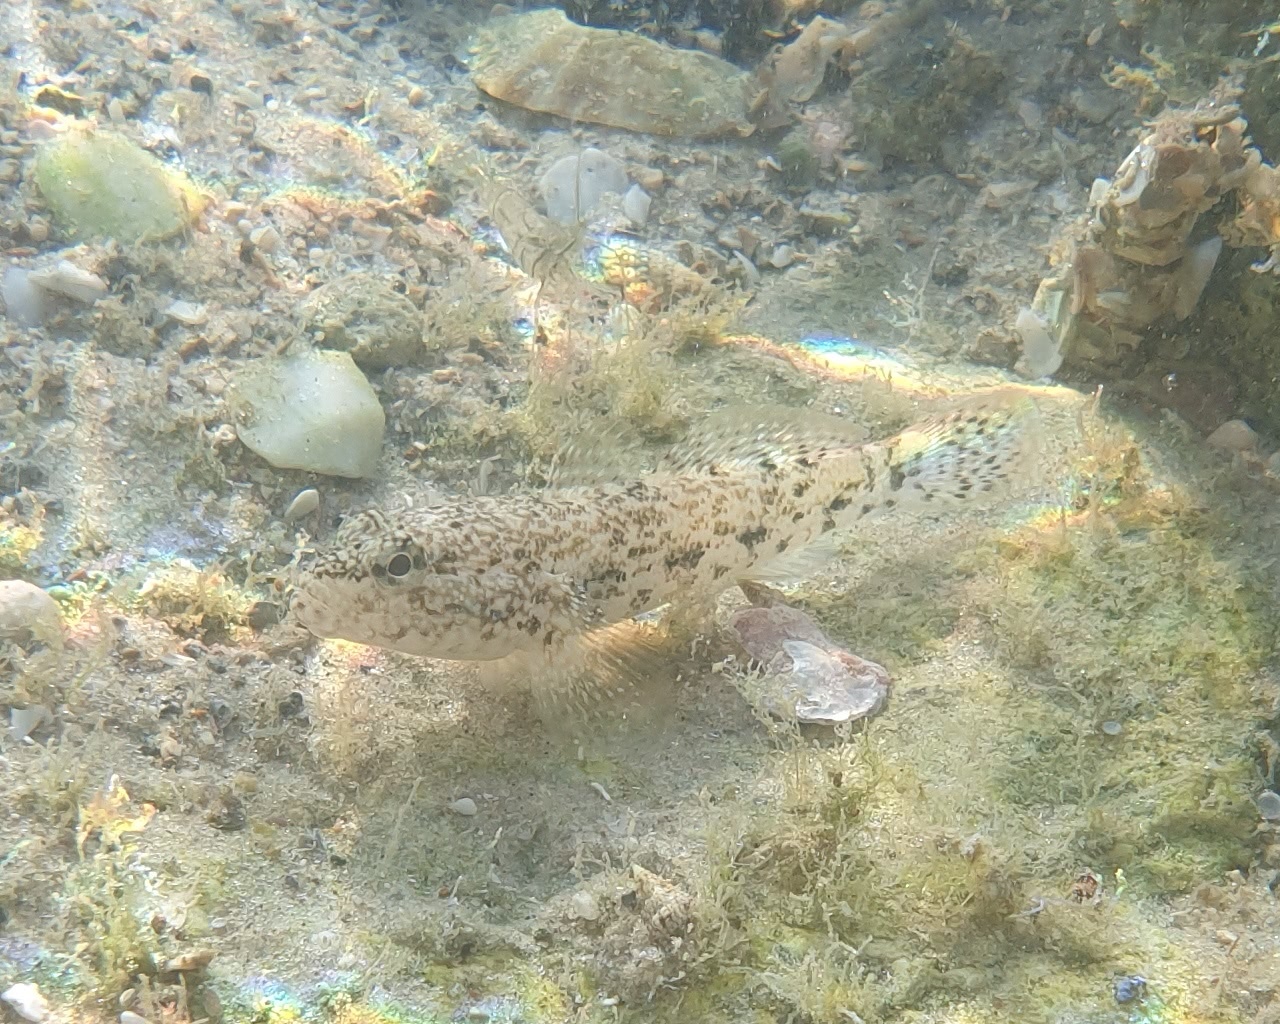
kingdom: Animalia
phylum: Chordata
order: Perciformes
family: Gobiidae
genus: Gobius
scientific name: Gobius cobitis
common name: Giant goby
